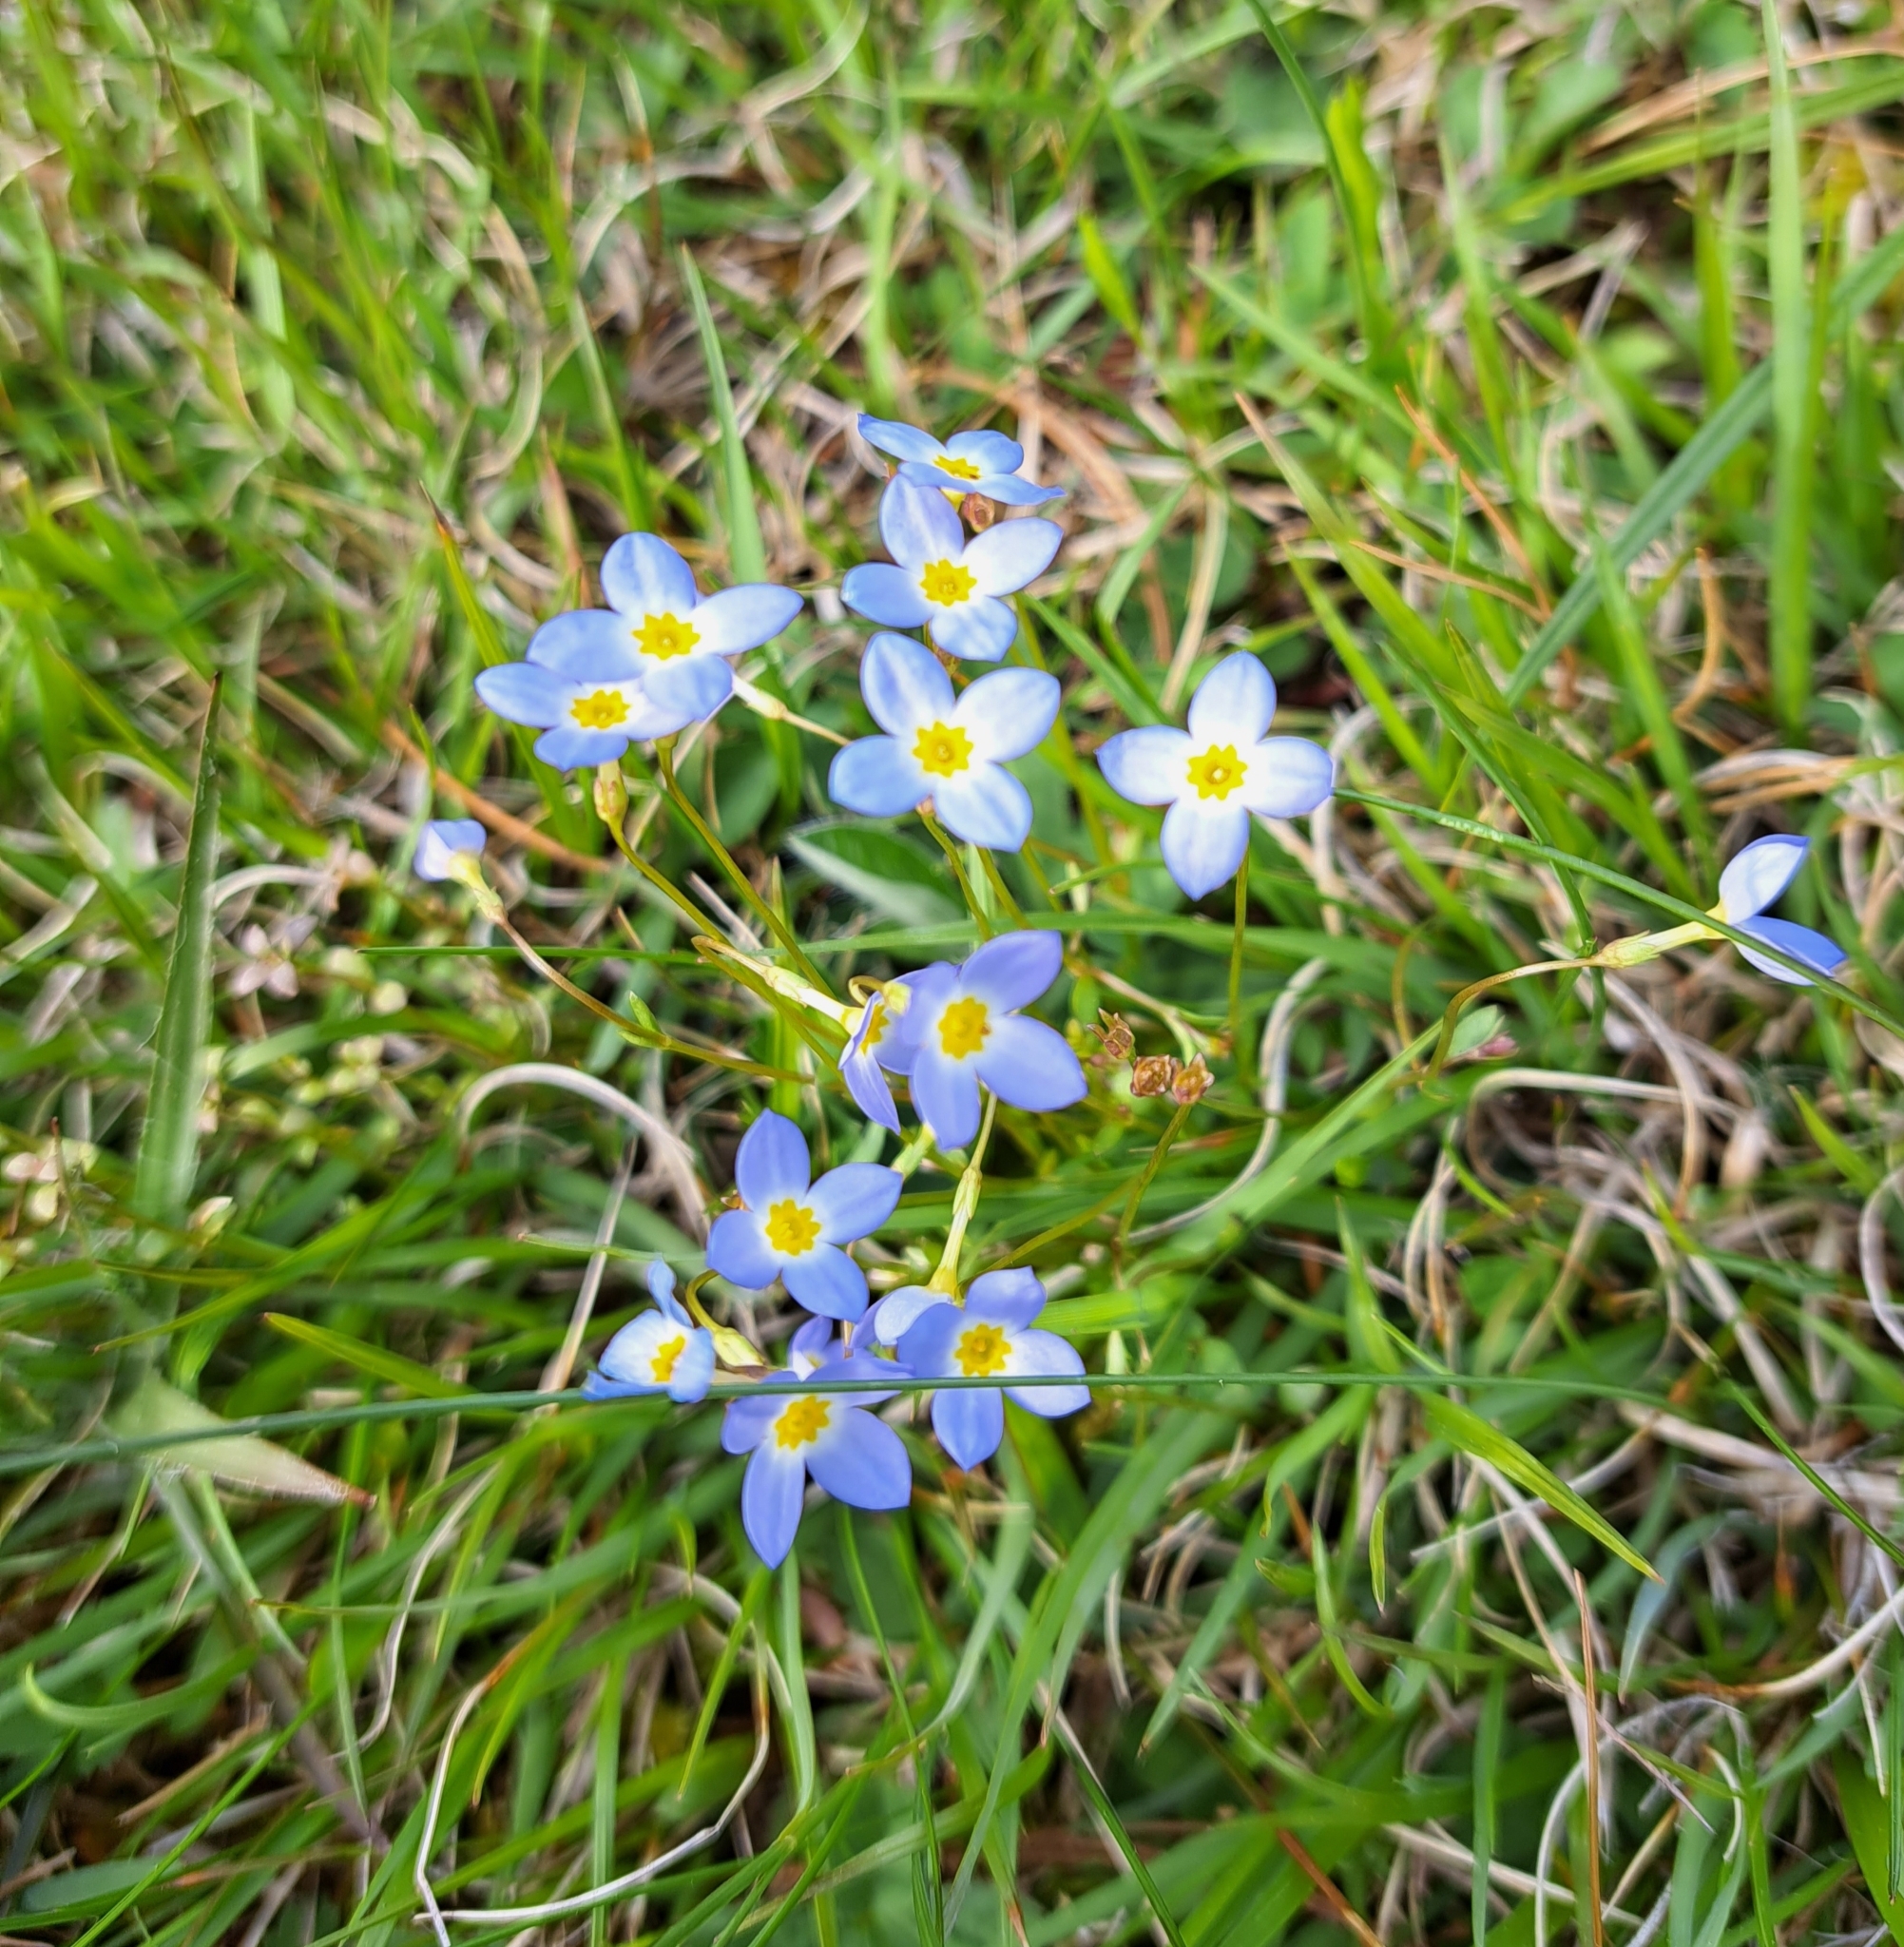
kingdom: Plantae
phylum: Tracheophyta
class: Magnoliopsida
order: Gentianales
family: Rubiaceae
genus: Houstonia
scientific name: Houstonia caerulea
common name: Bluets
